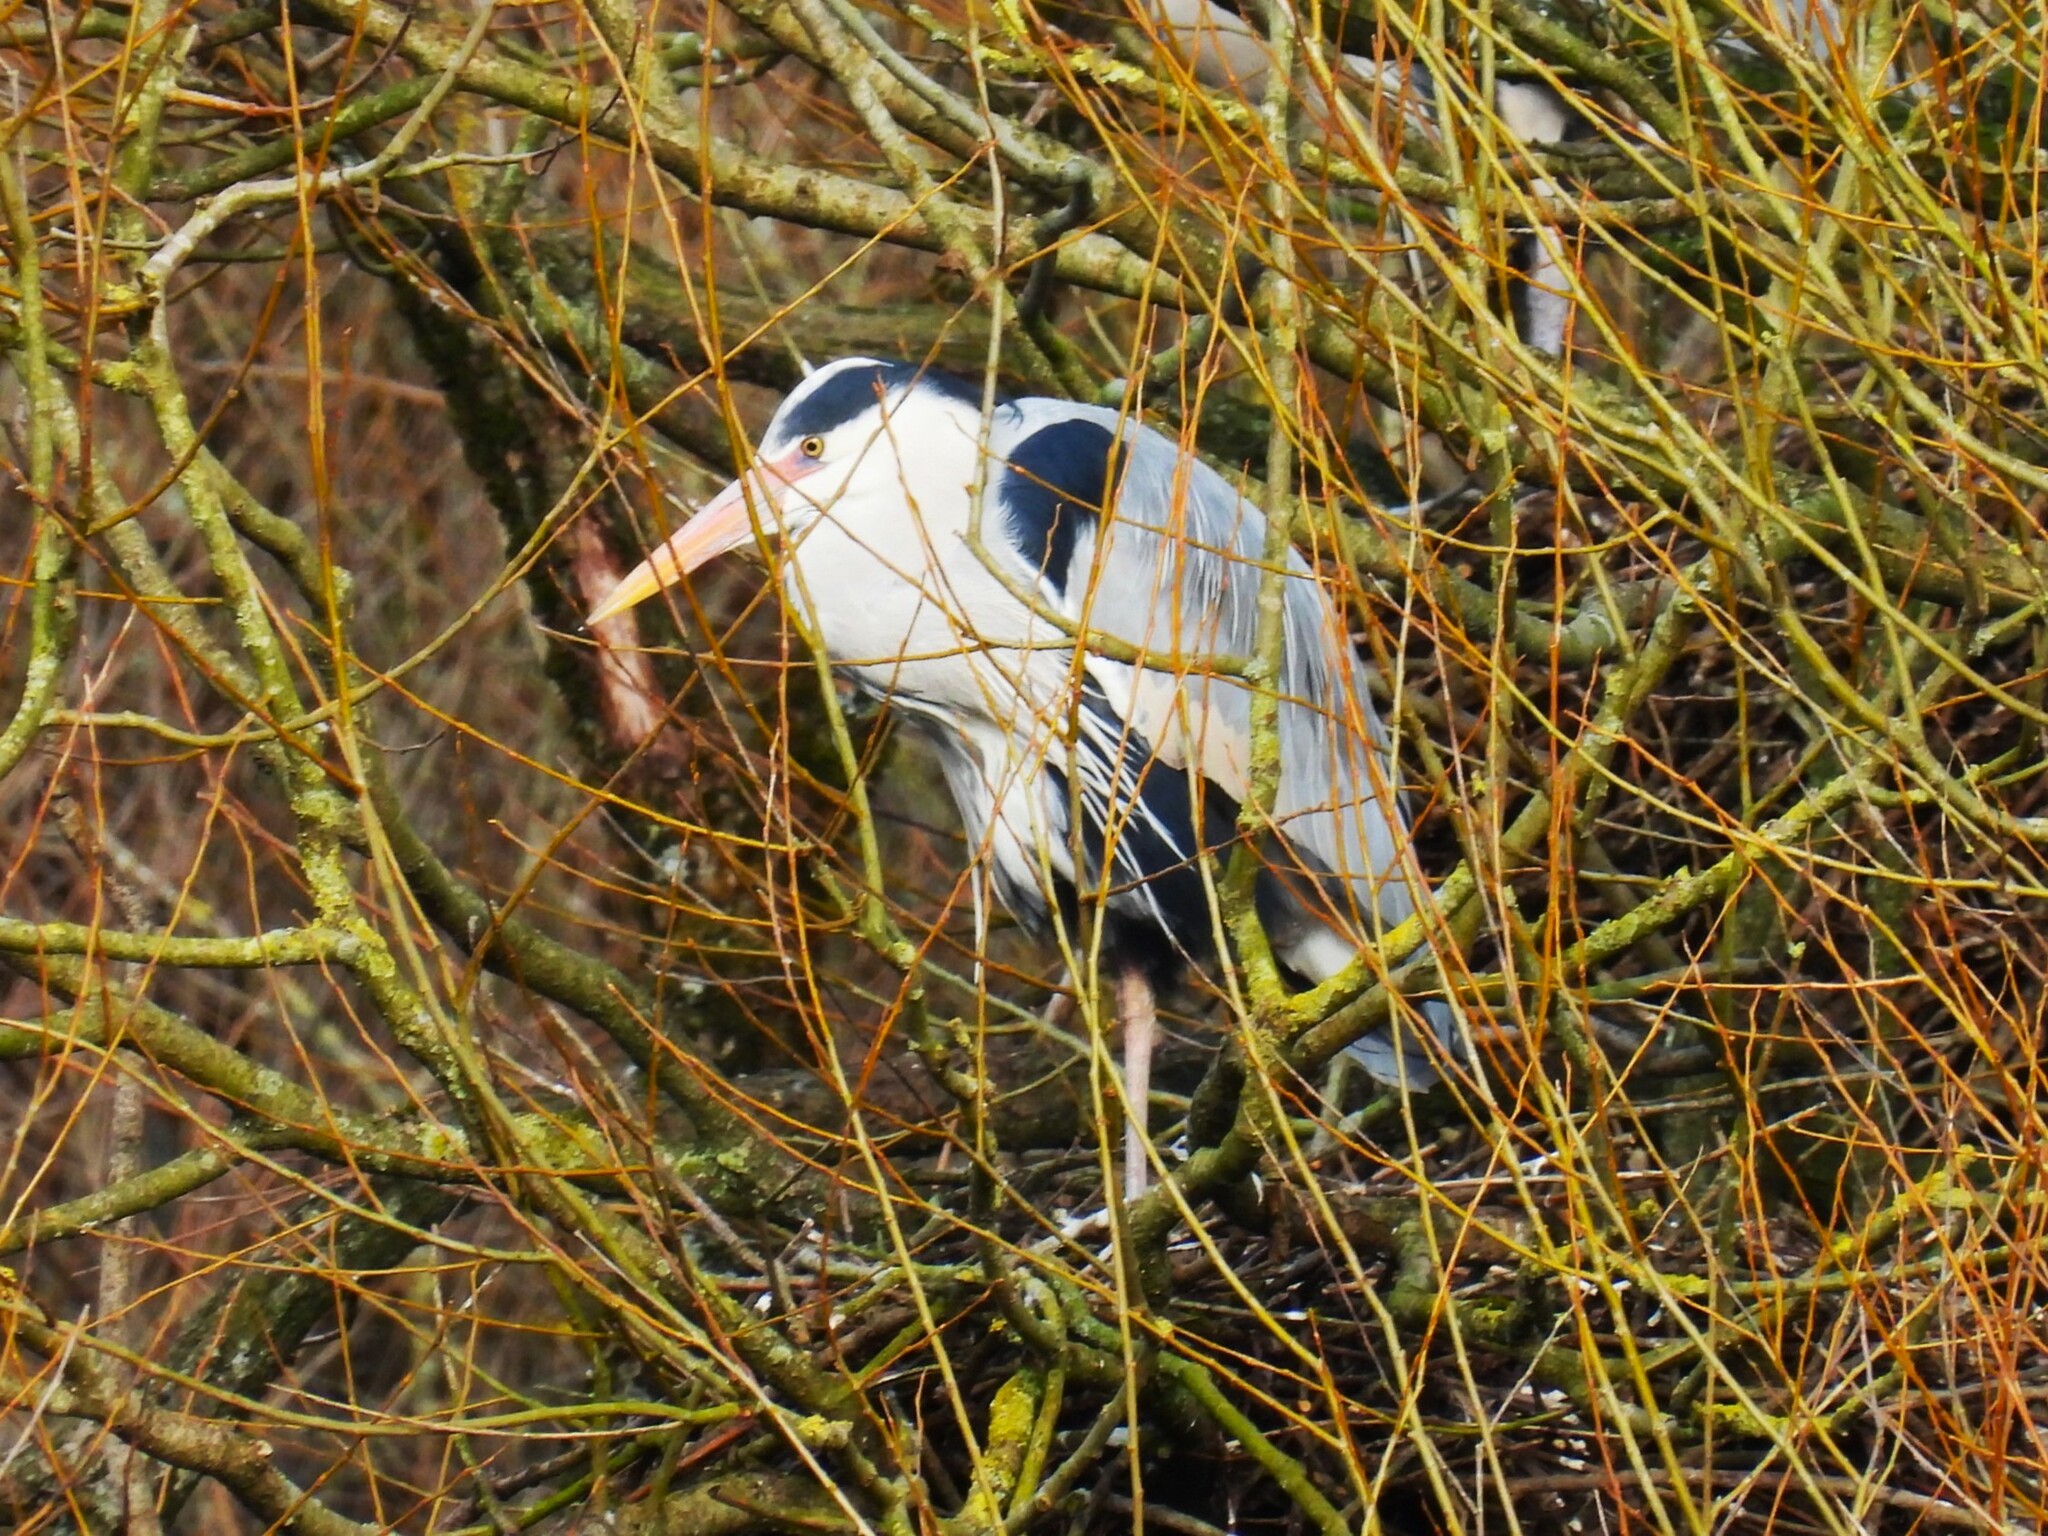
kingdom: Animalia
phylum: Chordata
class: Aves
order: Pelecaniformes
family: Ardeidae
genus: Ardea
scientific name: Ardea cinerea
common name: Grey heron
